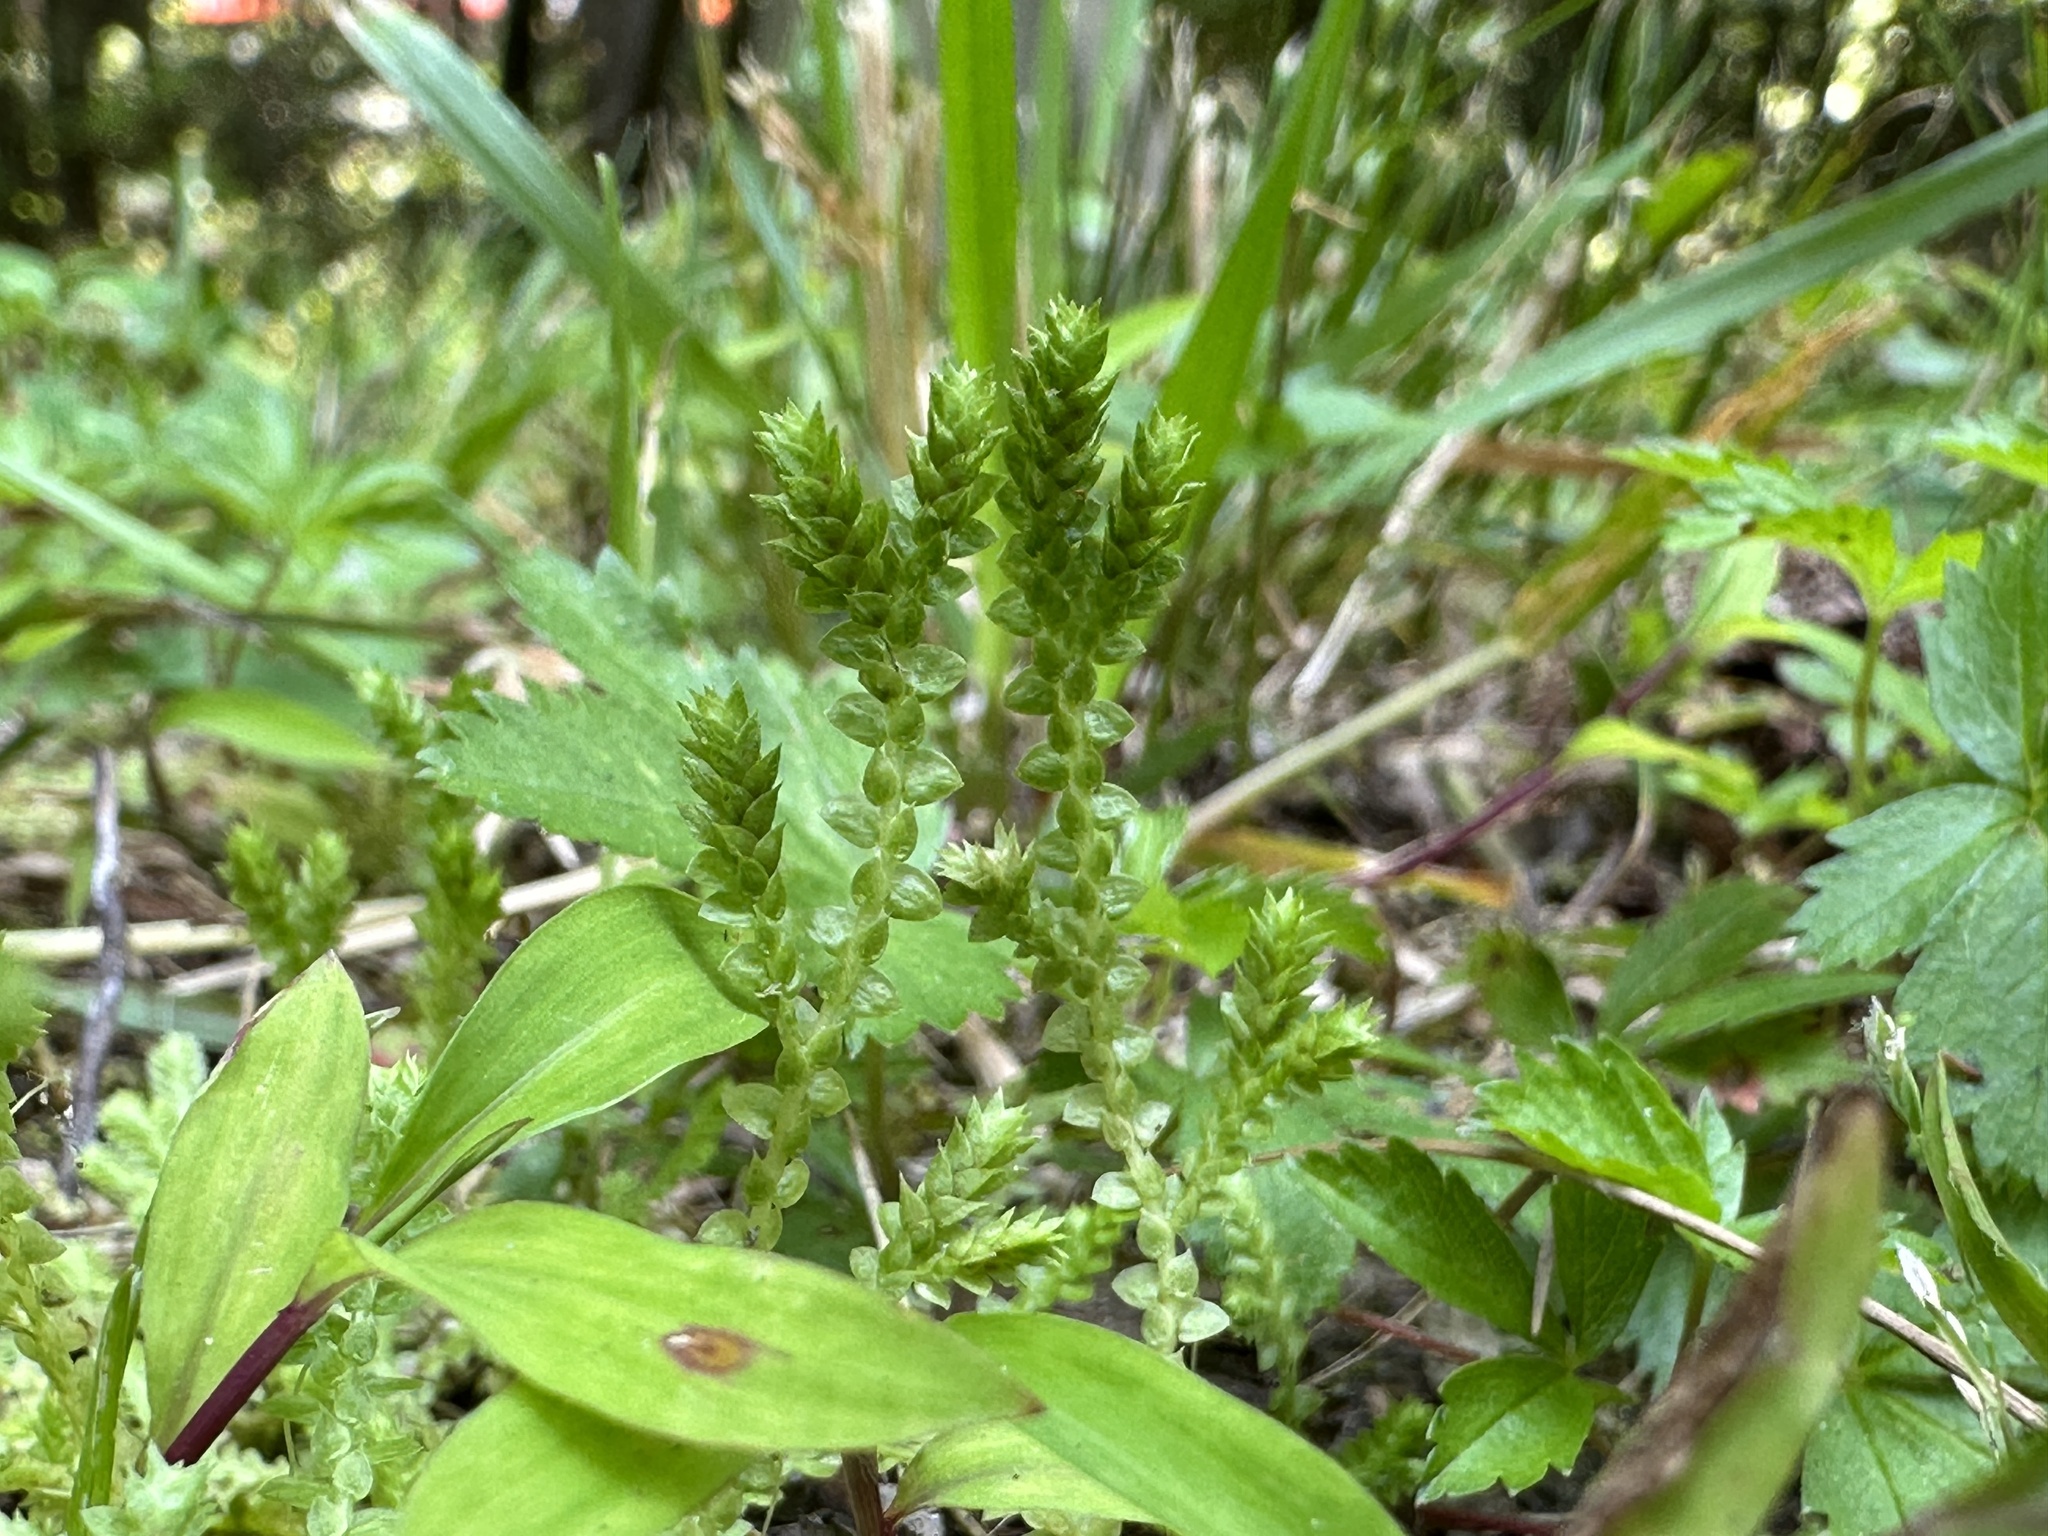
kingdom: Plantae
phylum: Tracheophyta
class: Lycopodiopsida
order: Selaginellales
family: Selaginellaceae
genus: Selaginella
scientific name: Selaginella apoda
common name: Creeping spikemoss
